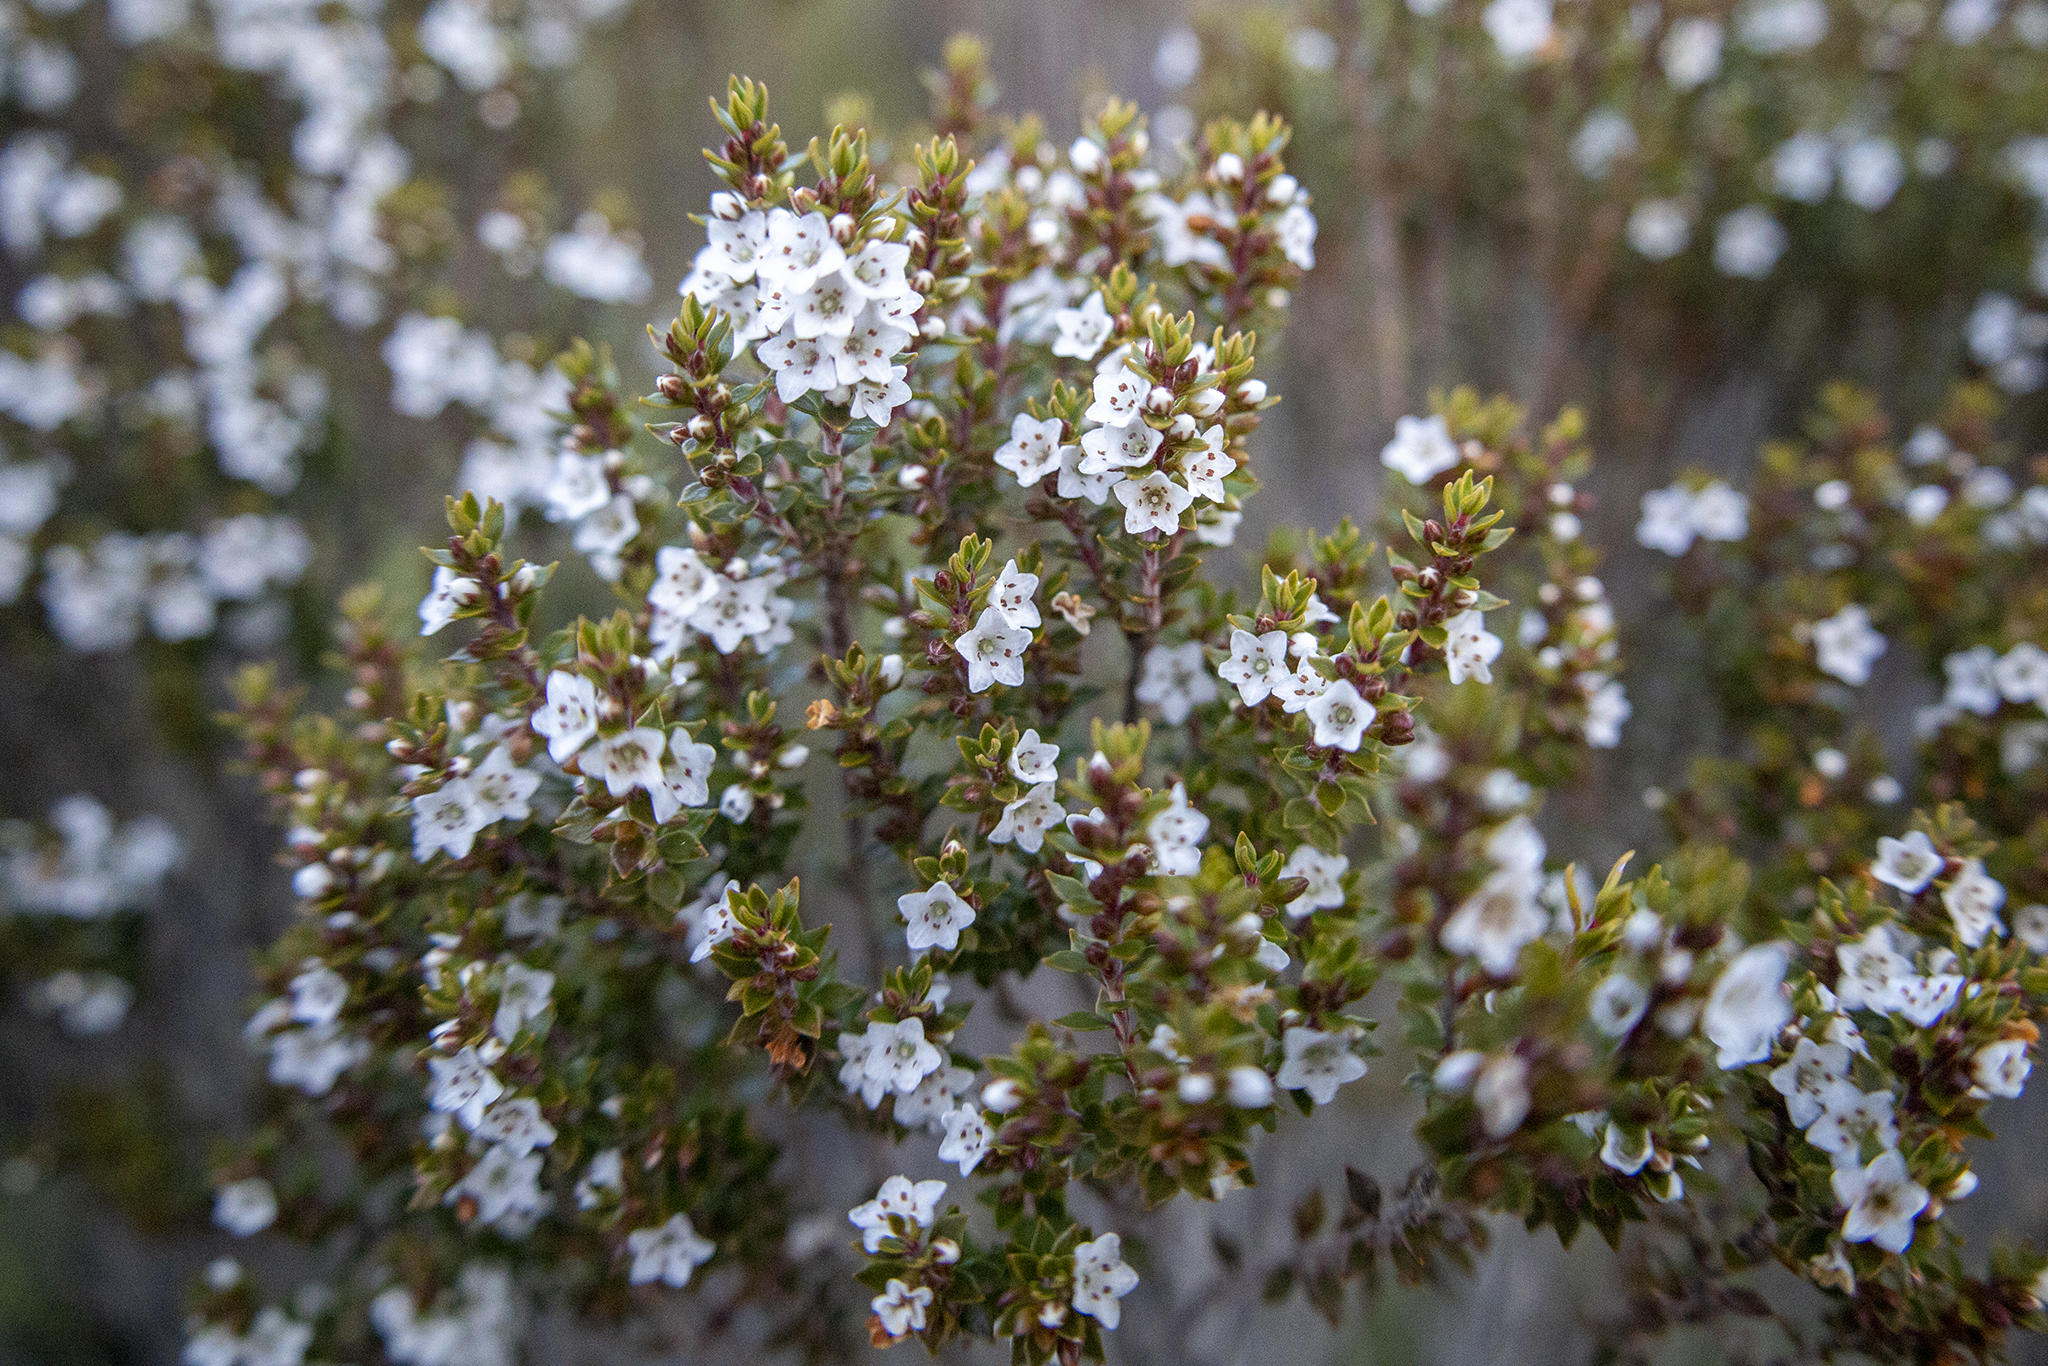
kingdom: Plantae
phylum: Tracheophyta
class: Magnoliopsida
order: Ericales
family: Ericaceae
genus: Epacris
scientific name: Epacris pauciflora
